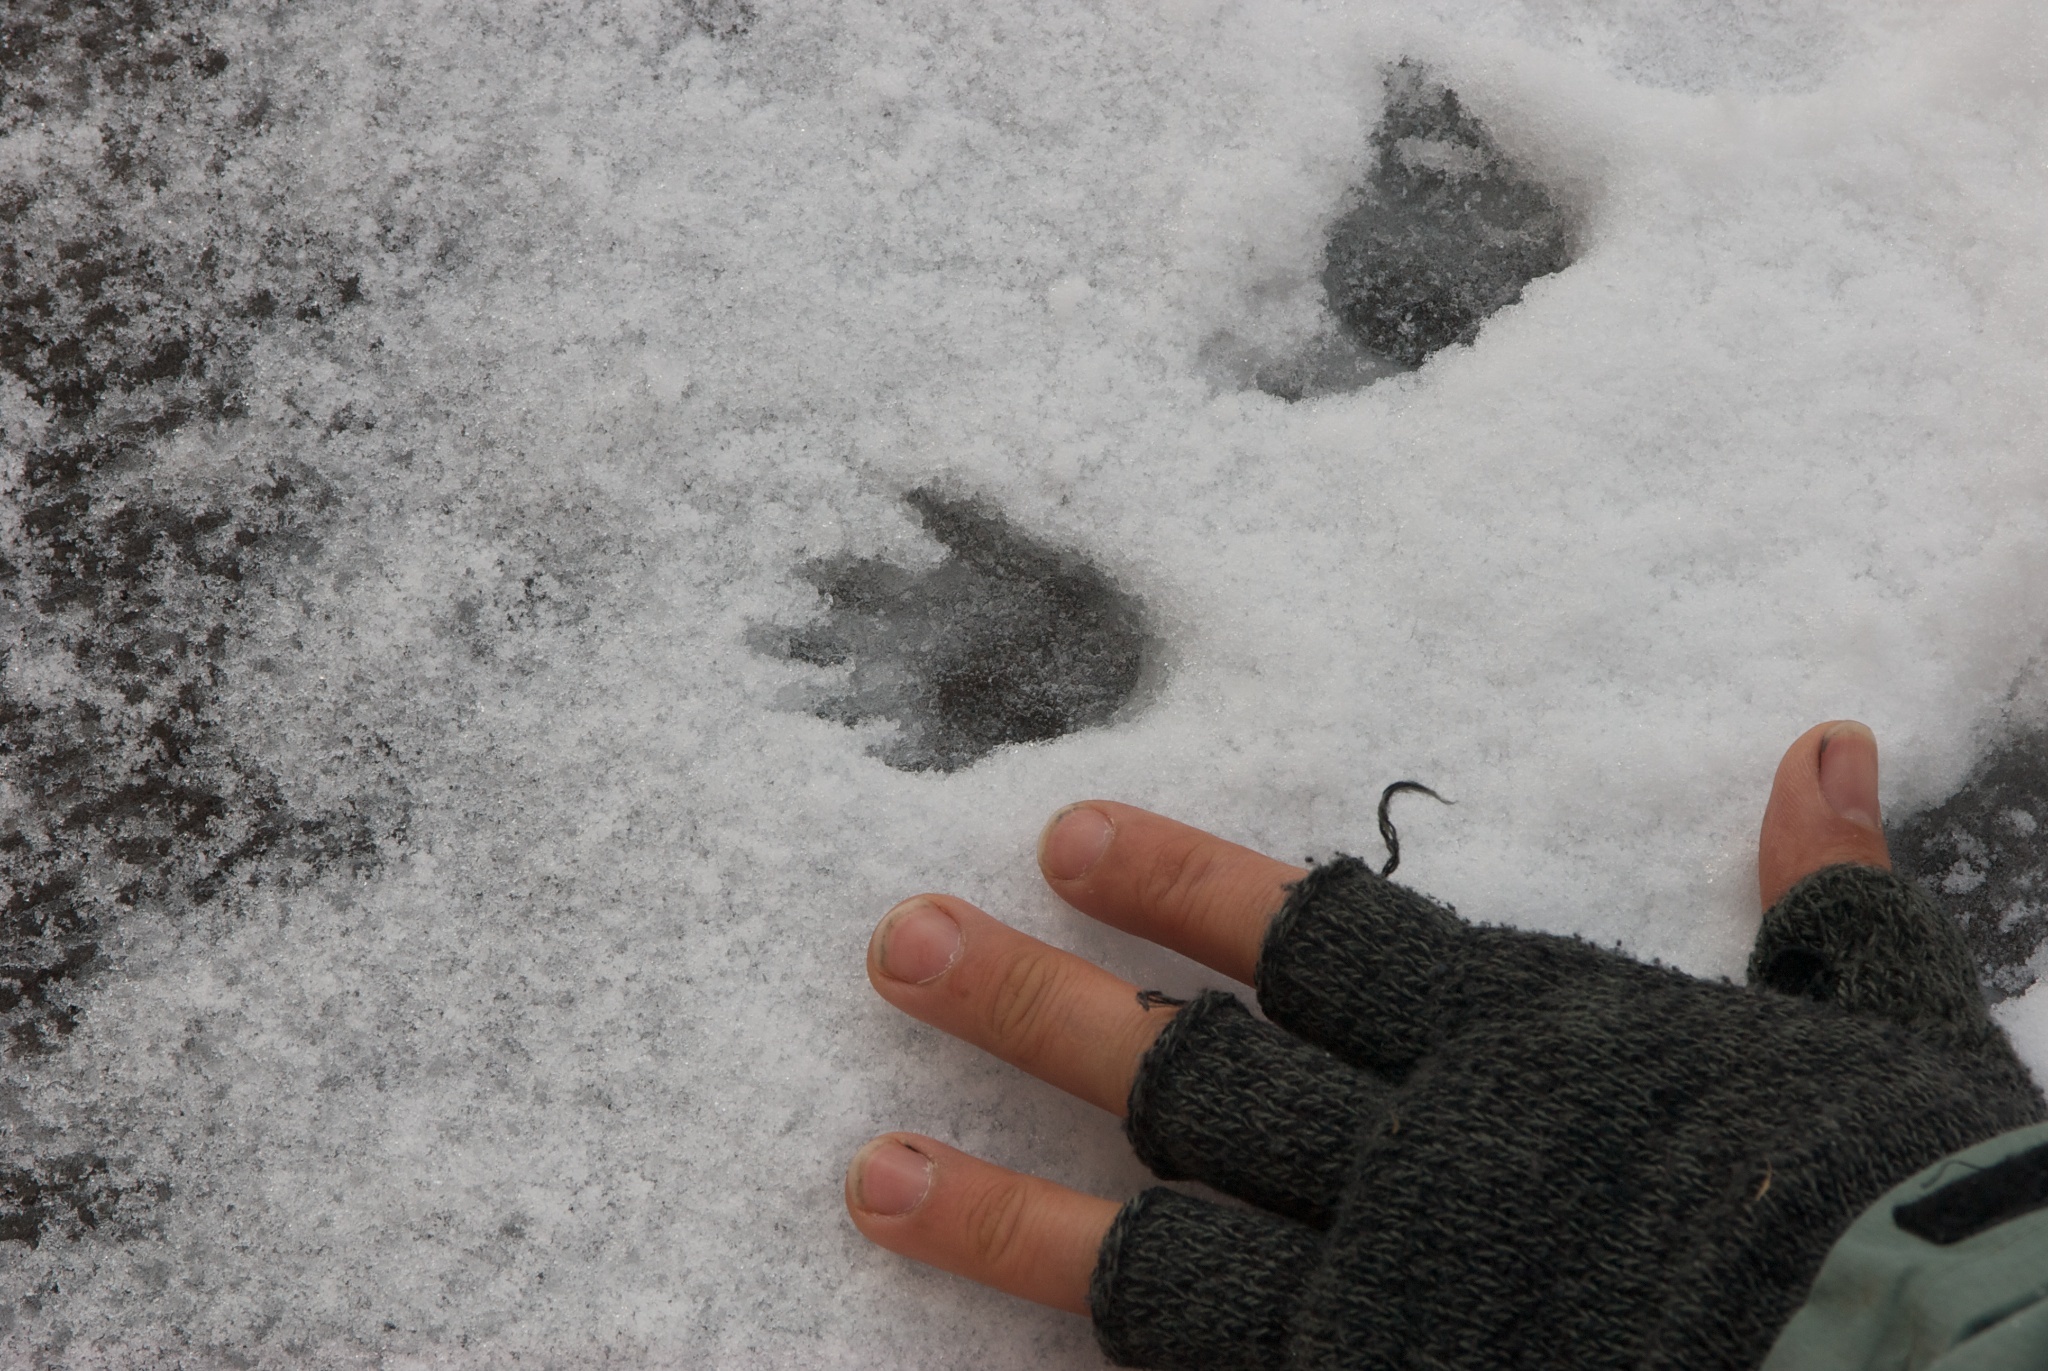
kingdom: Animalia
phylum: Chordata
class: Mammalia
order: Diprotodontia
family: Phalangeridae
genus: Trichosurus
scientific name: Trichosurus vulpecula
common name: Common brushtail
